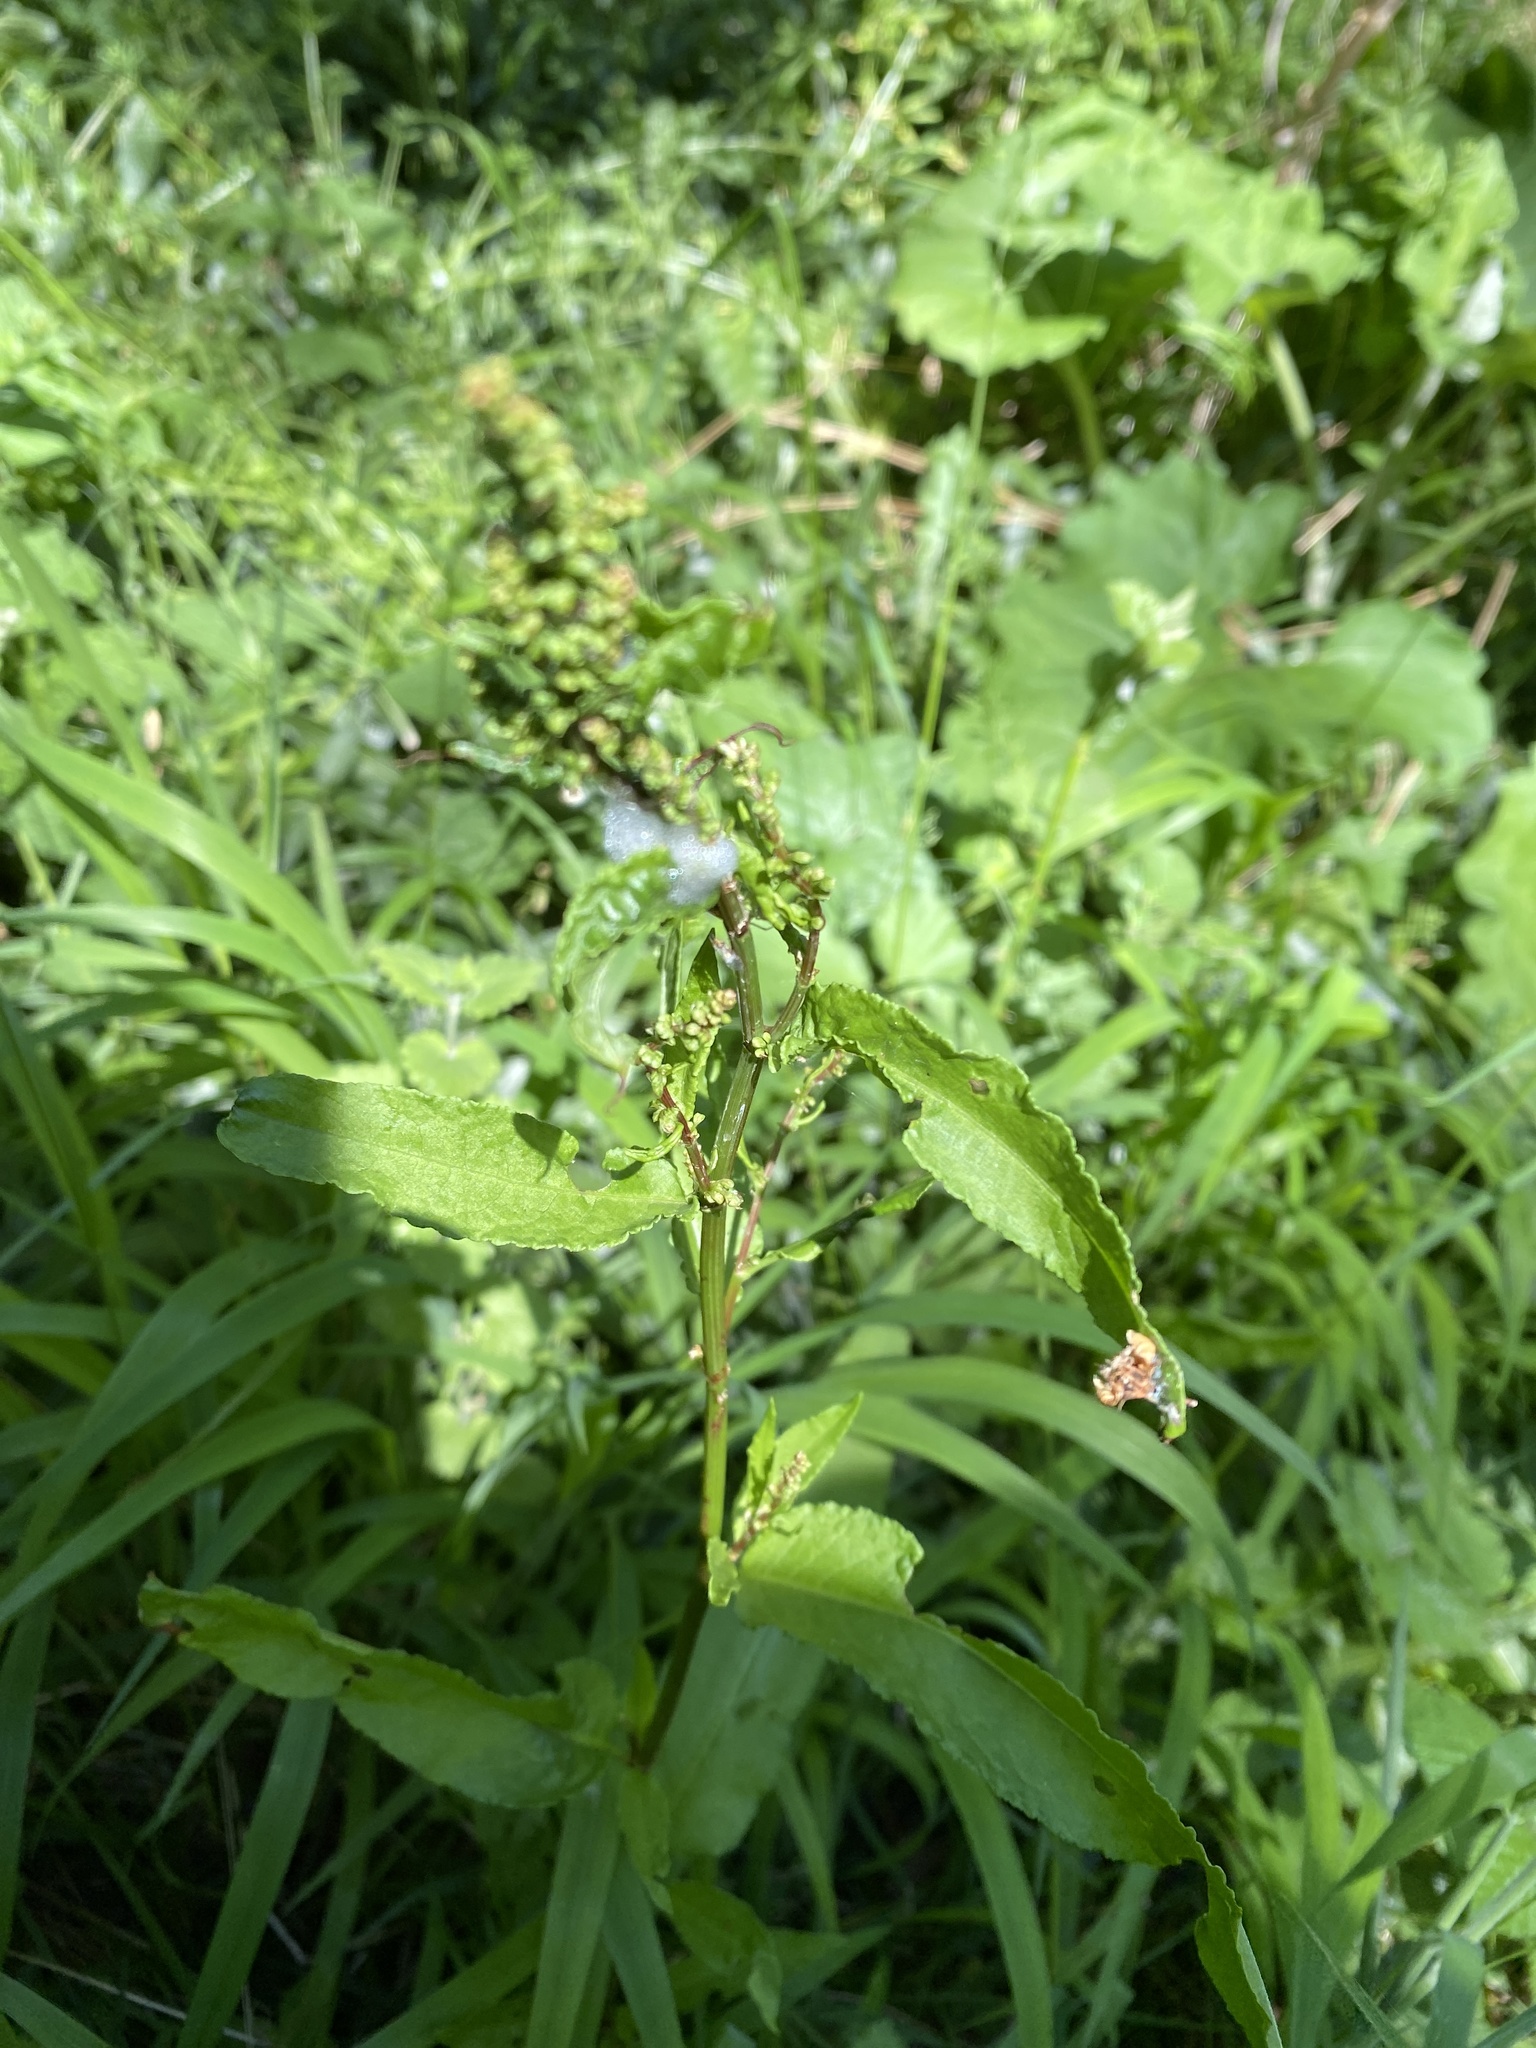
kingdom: Plantae
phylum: Tracheophyta
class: Magnoliopsida
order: Caryophyllales
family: Polygonaceae
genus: Rumex
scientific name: Rumex sanguineus
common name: Wood dock
